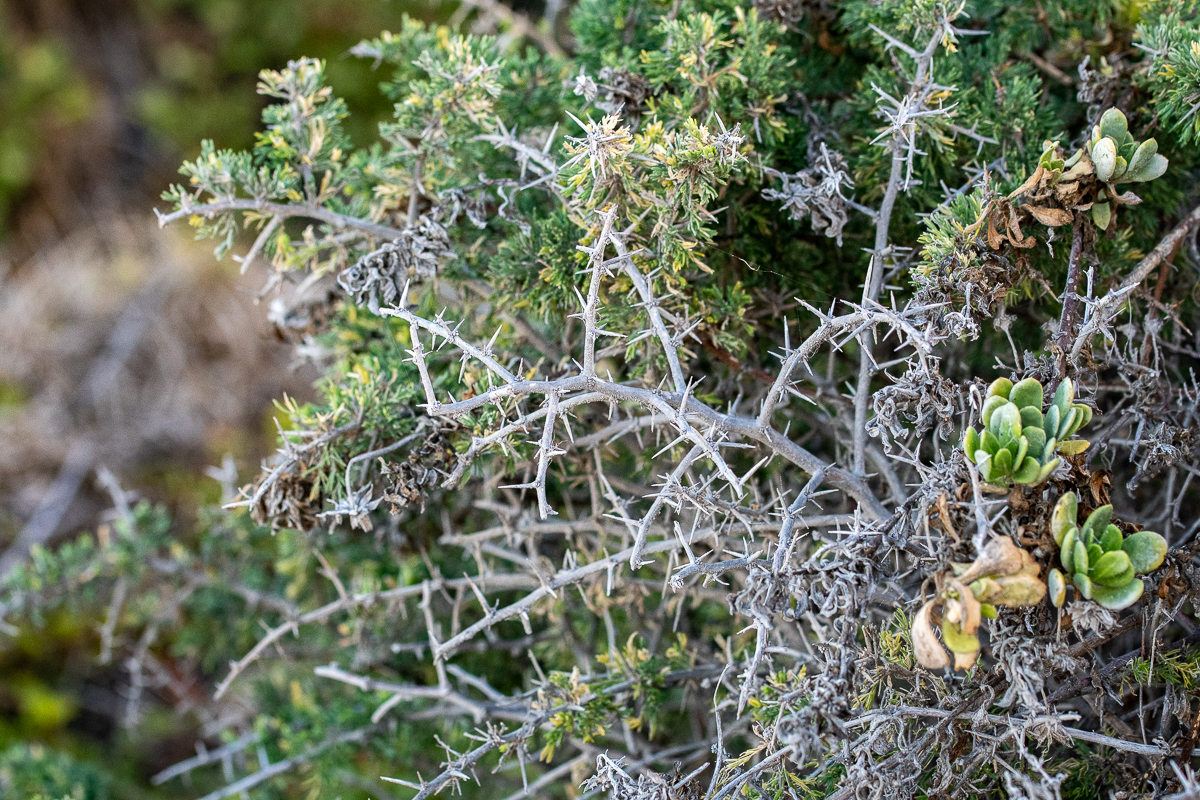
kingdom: Plantae
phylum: Tracheophyta
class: Liliopsida
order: Asparagales
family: Asparagaceae
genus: Asparagus
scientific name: Asparagus capensis
